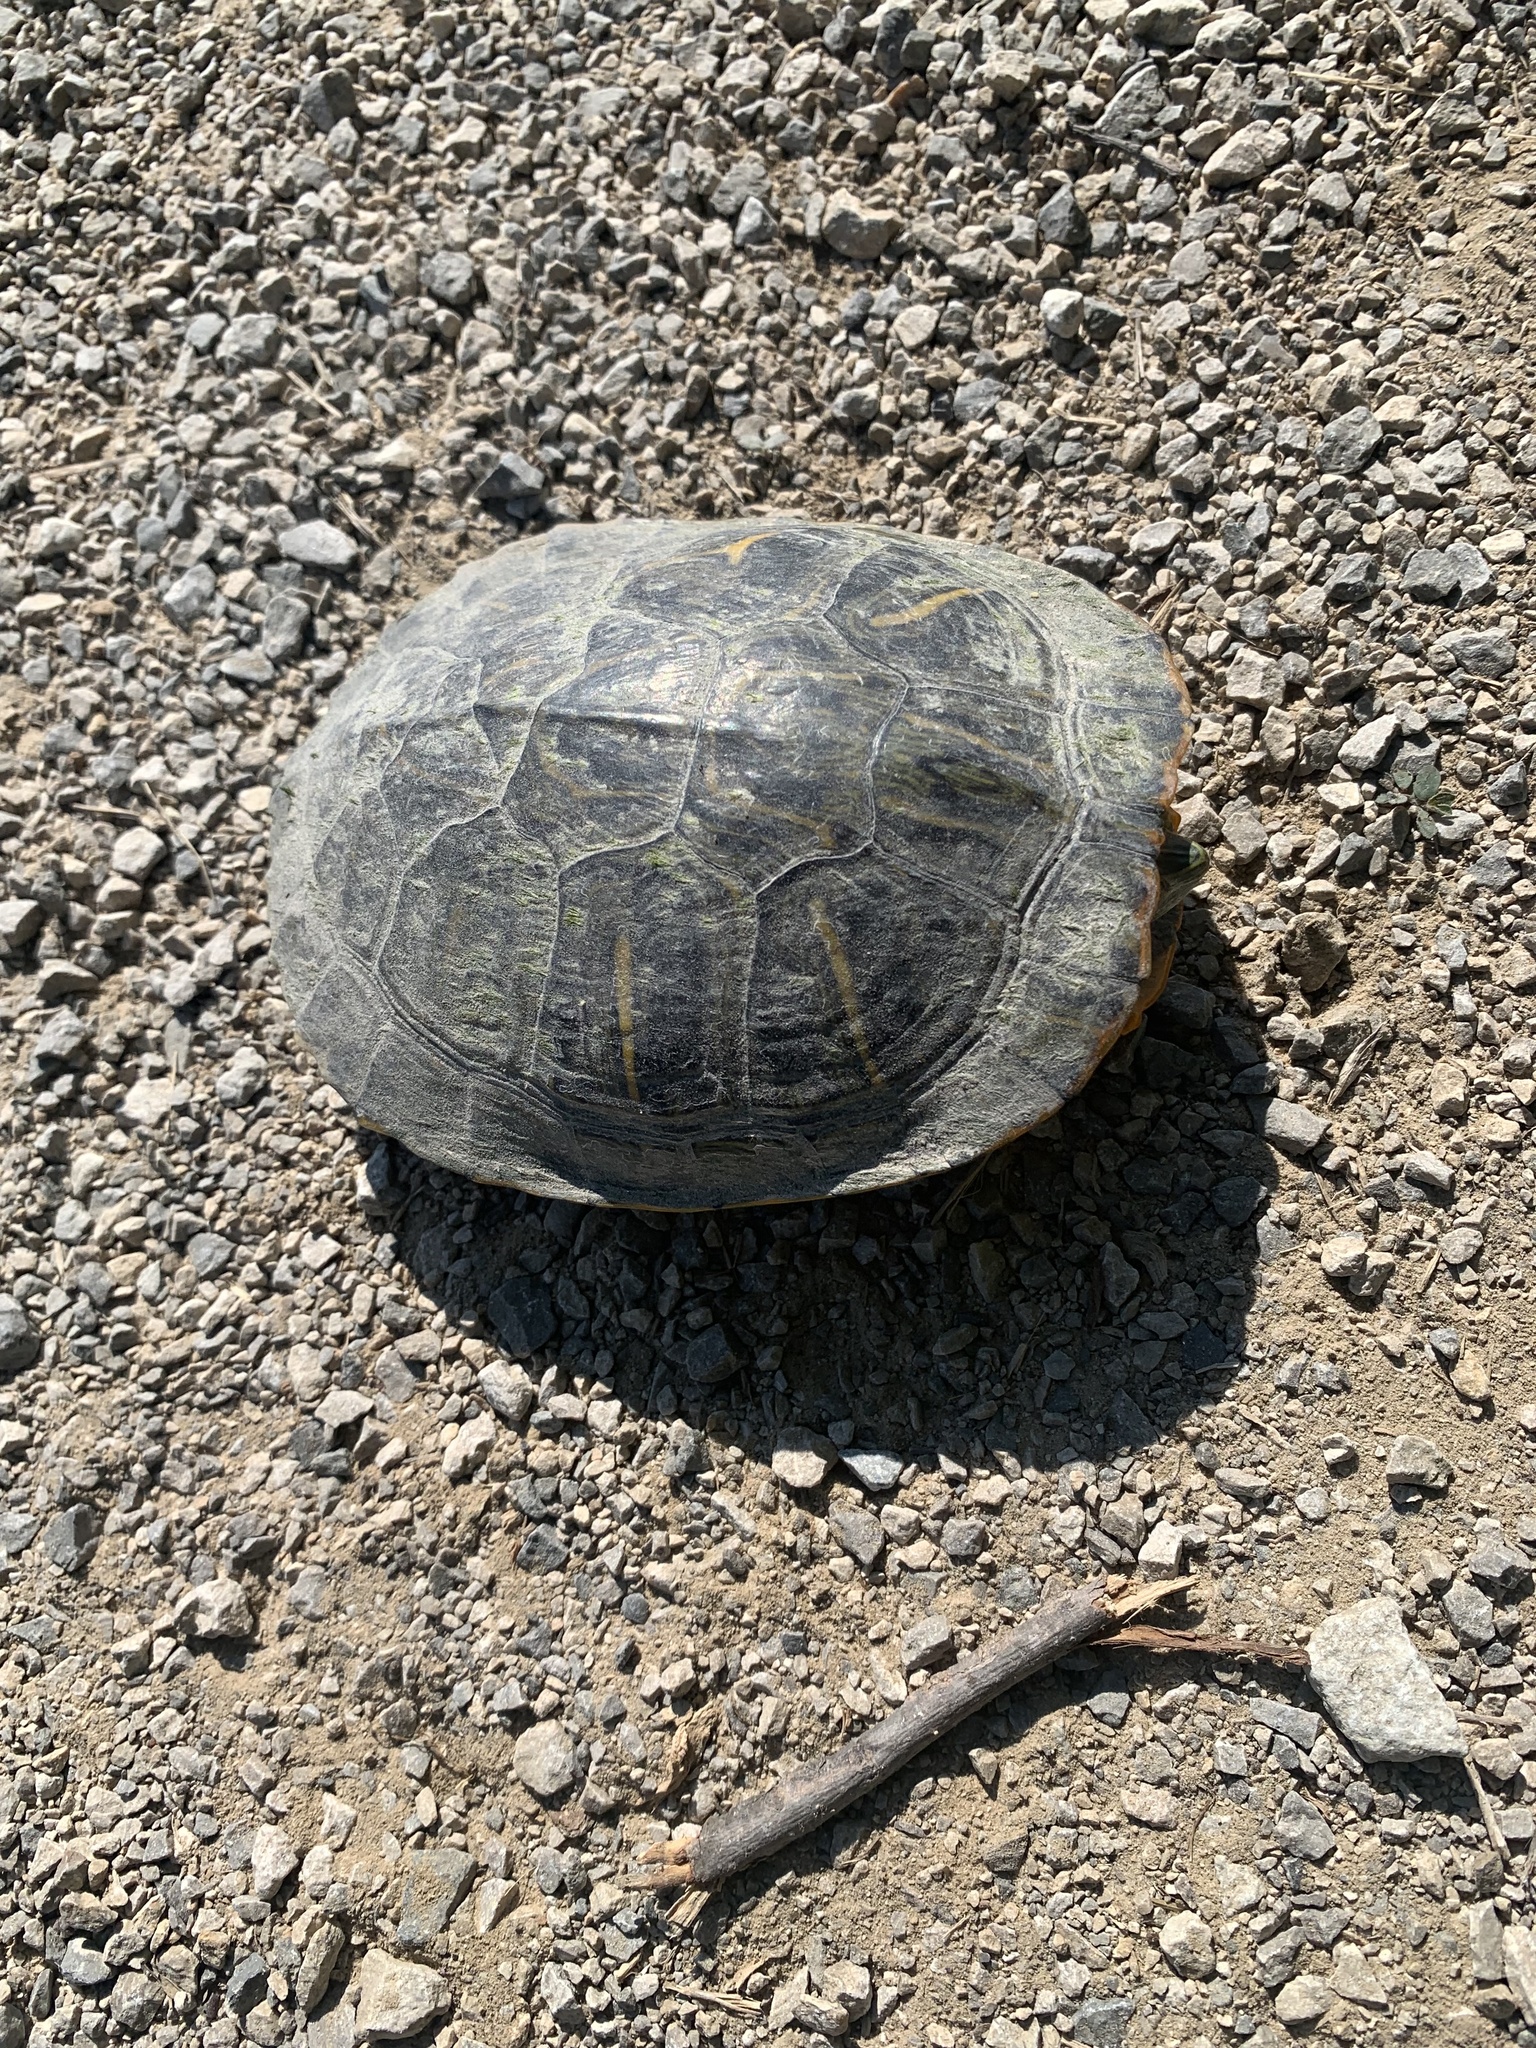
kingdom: Animalia
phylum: Chordata
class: Testudines
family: Emydidae
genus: Trachemys
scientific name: Trachemys scripta
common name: Slider
